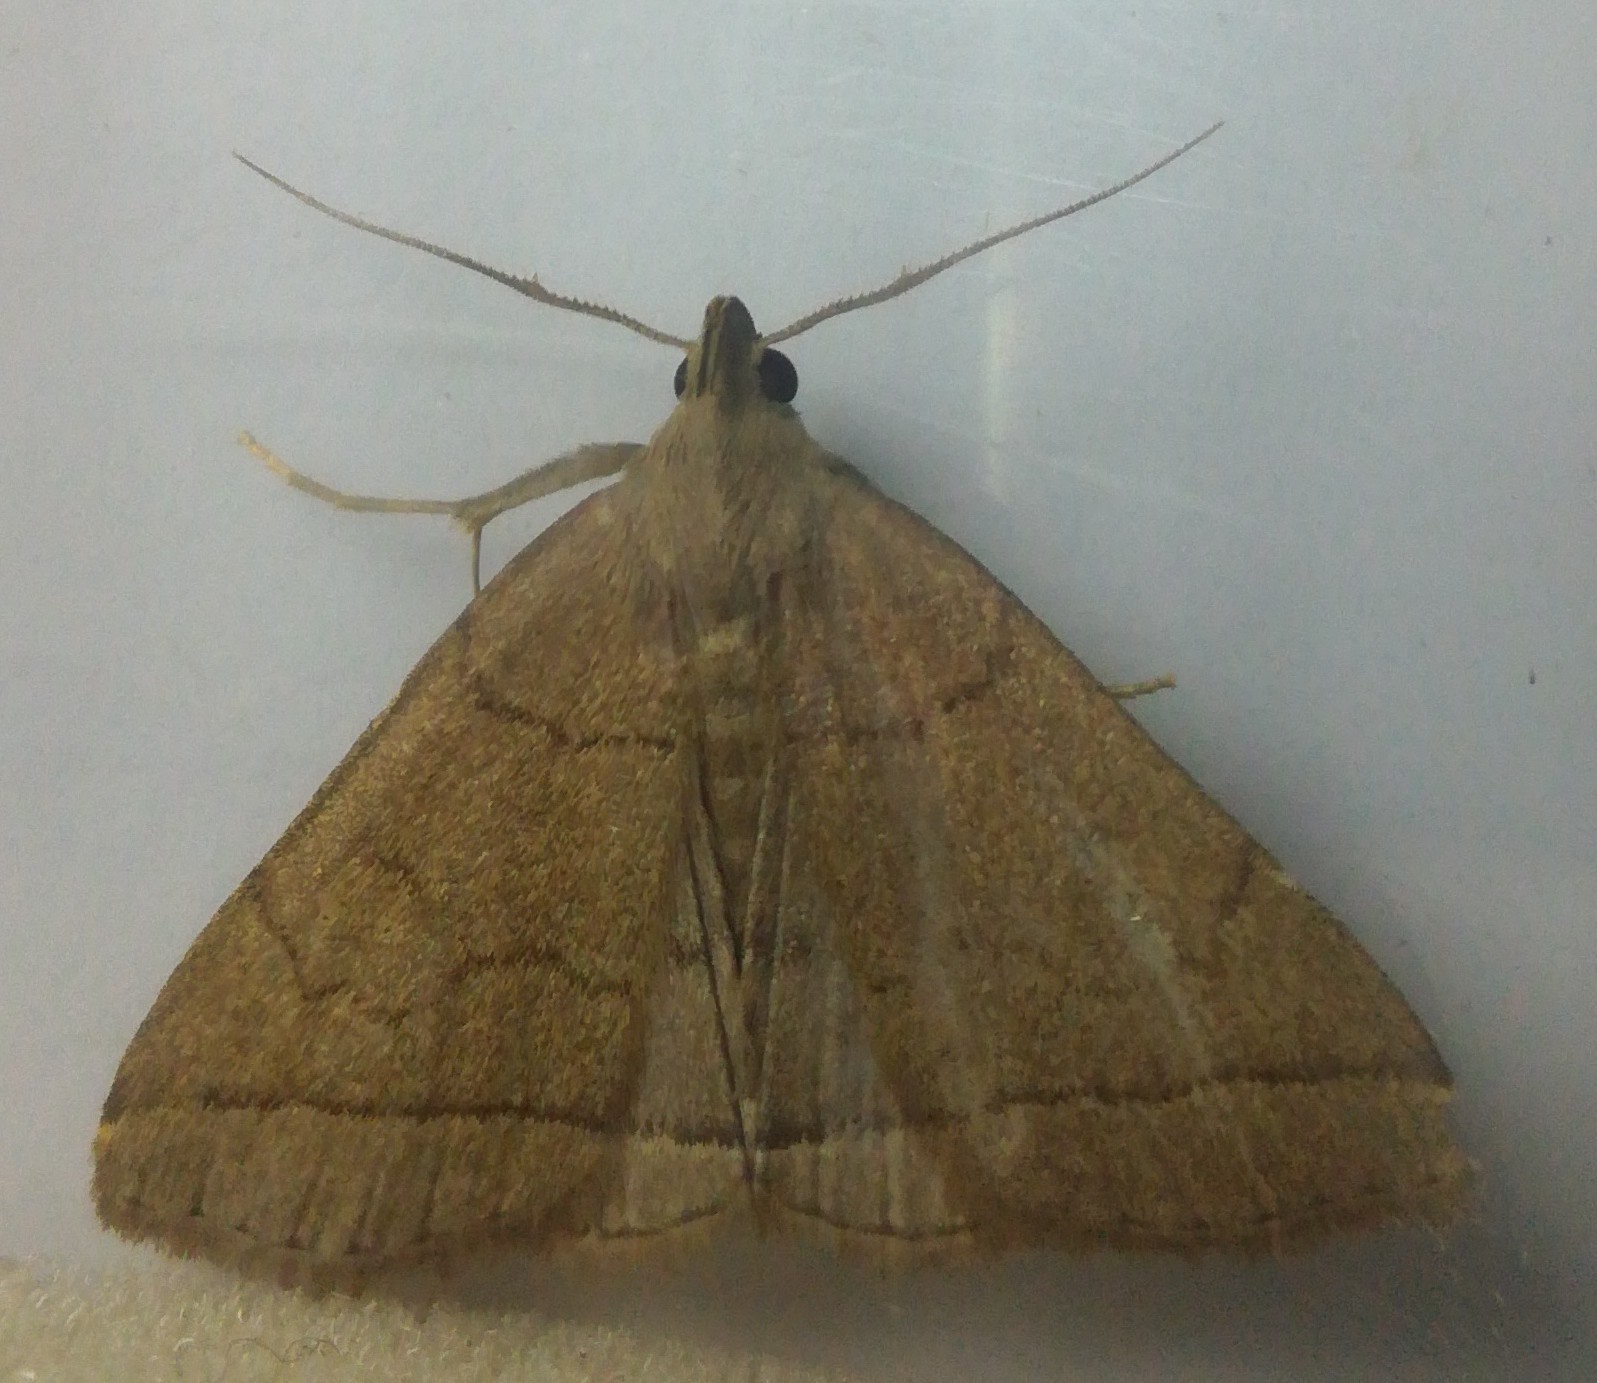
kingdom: Animalia
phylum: Arthropoda
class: Insecta
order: Lepidoptera
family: Erebidae
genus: Herminia
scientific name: Herminia tarsipennalis
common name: Fan-foot
